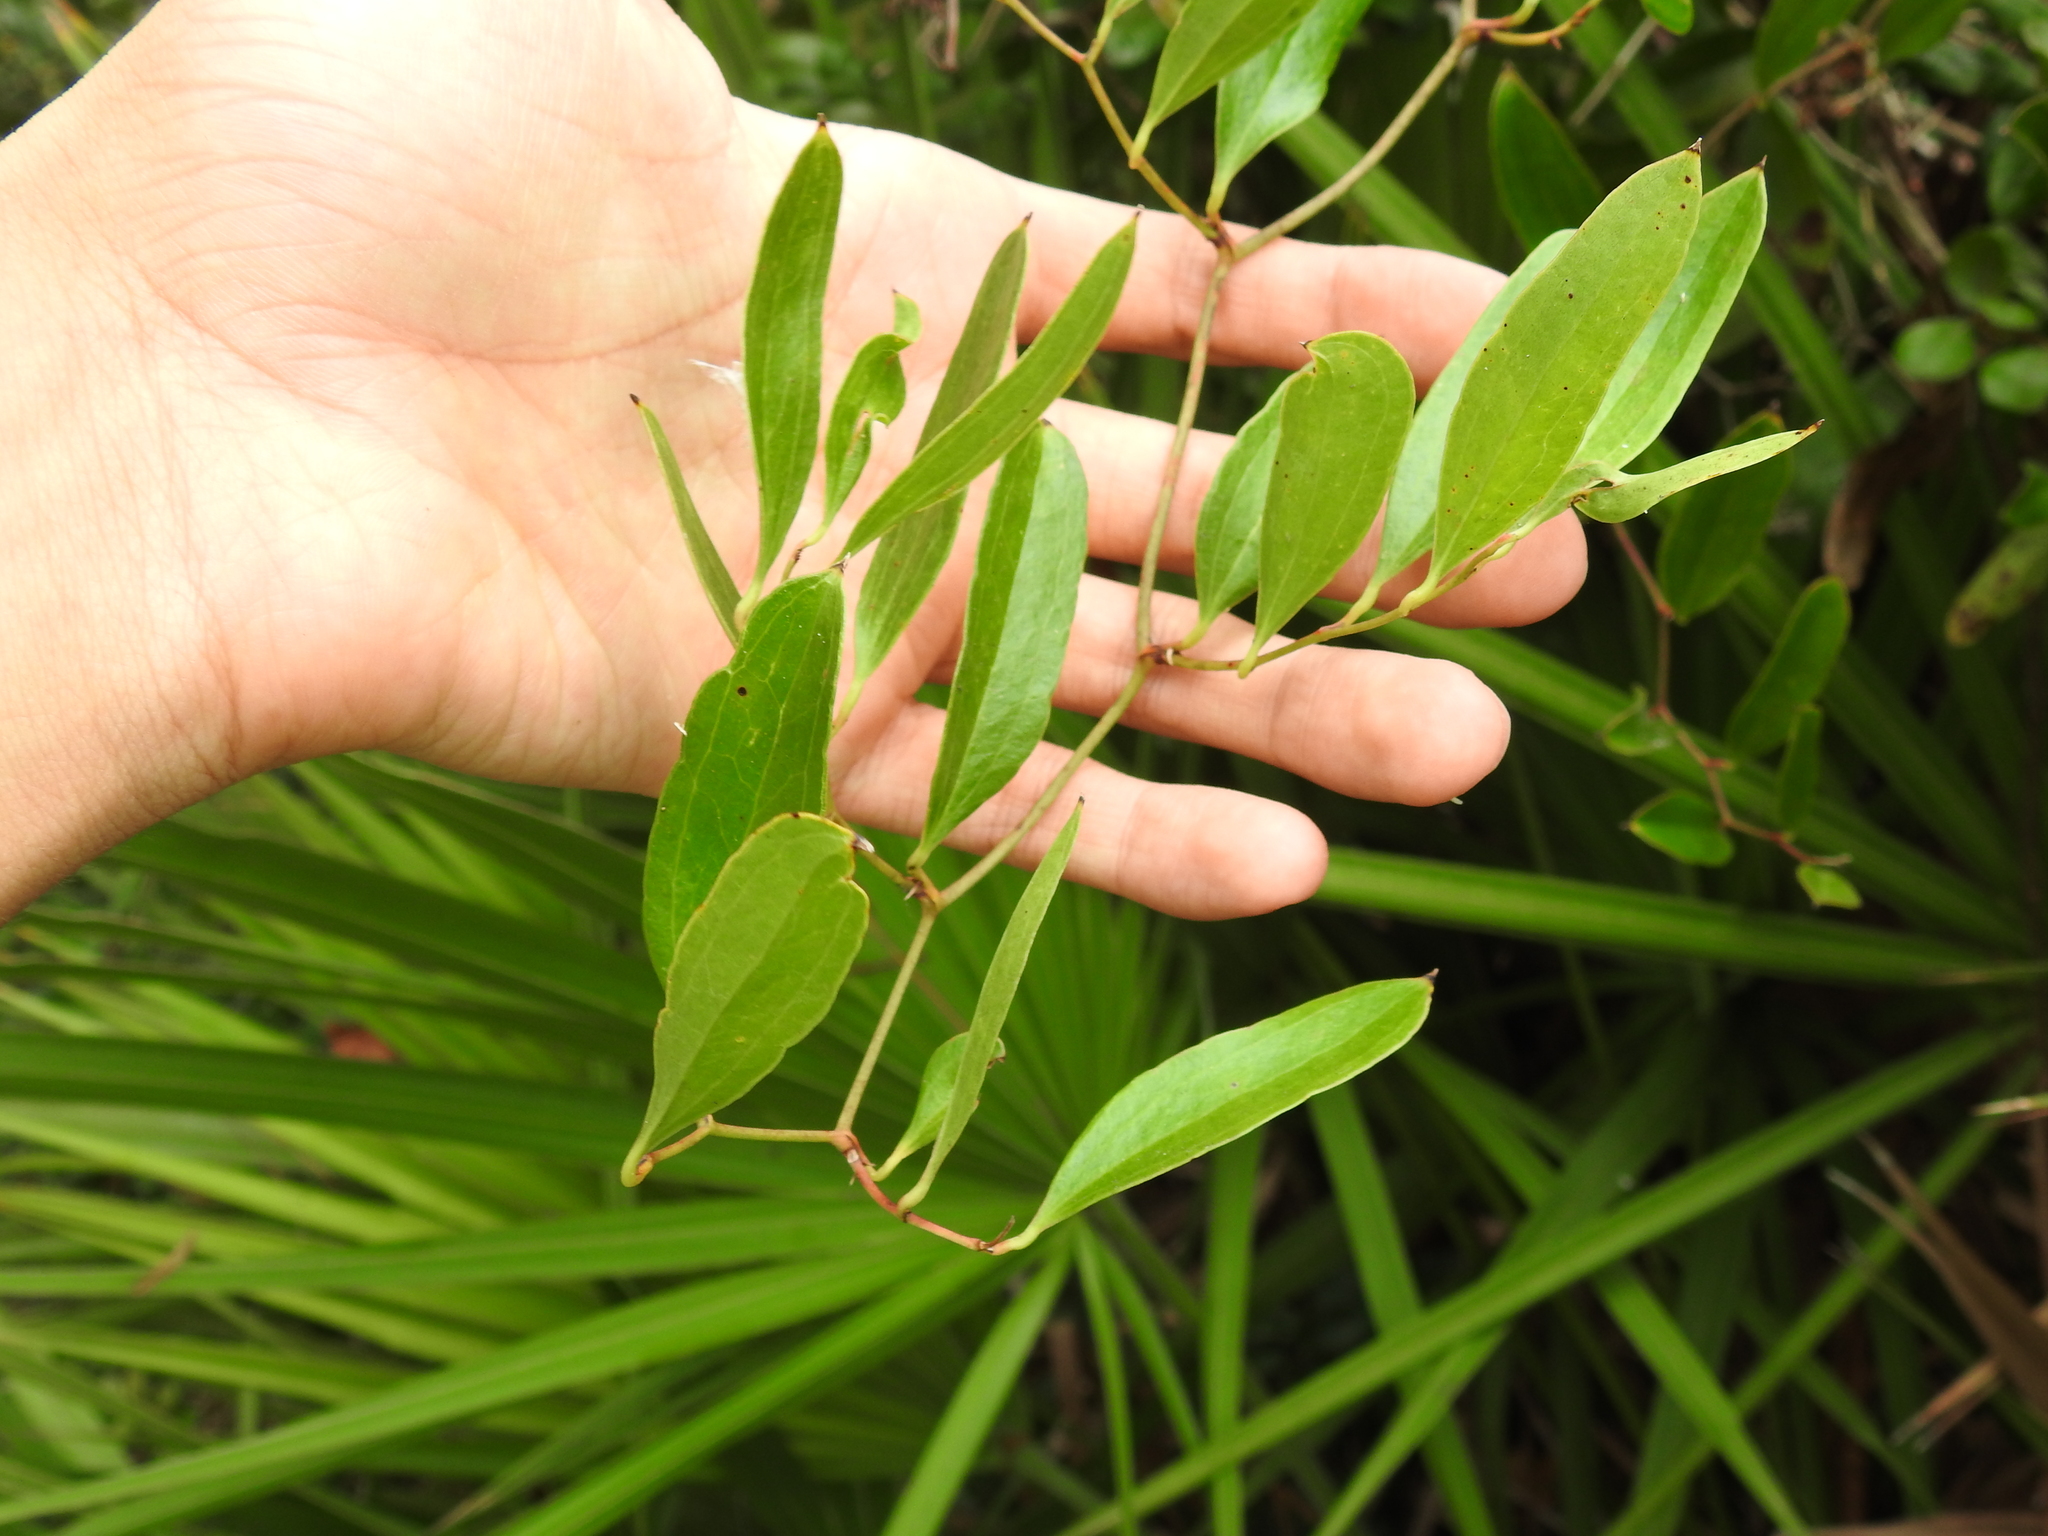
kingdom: Plantae
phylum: Tracheophyta
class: Liliopsida
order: Liliales
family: Smilacaceae
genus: Smilax
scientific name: Smilax auriculata
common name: Wild bamboo
